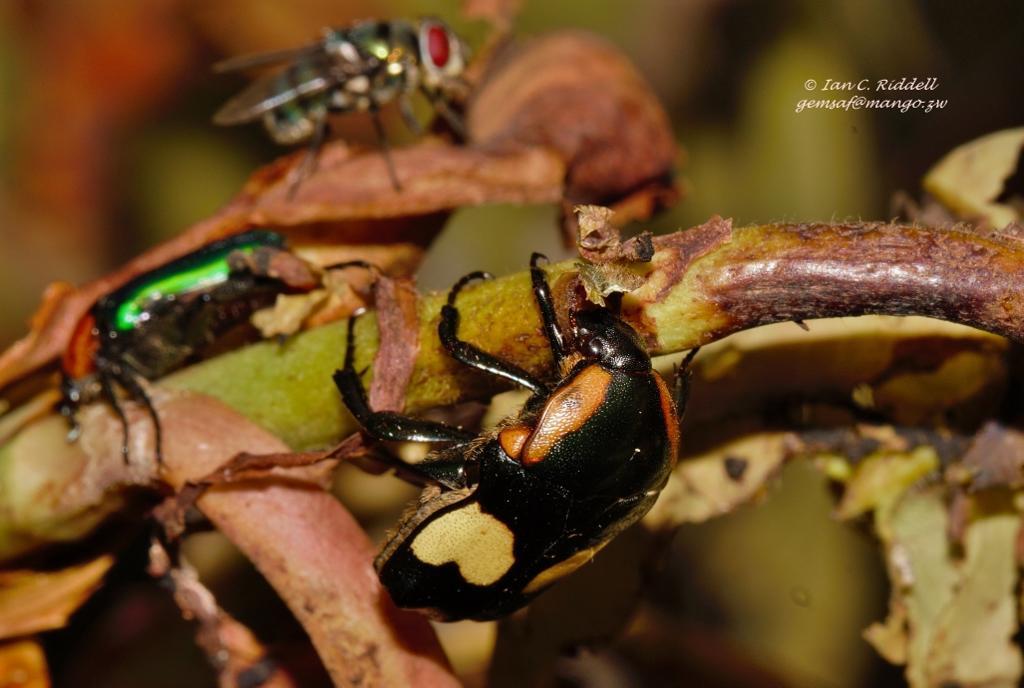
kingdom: Animalia
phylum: Arthropoda
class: Insecta
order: Coleoptera
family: Scarabaeidae
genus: Pedinorrhina
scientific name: Pedinorrhina
